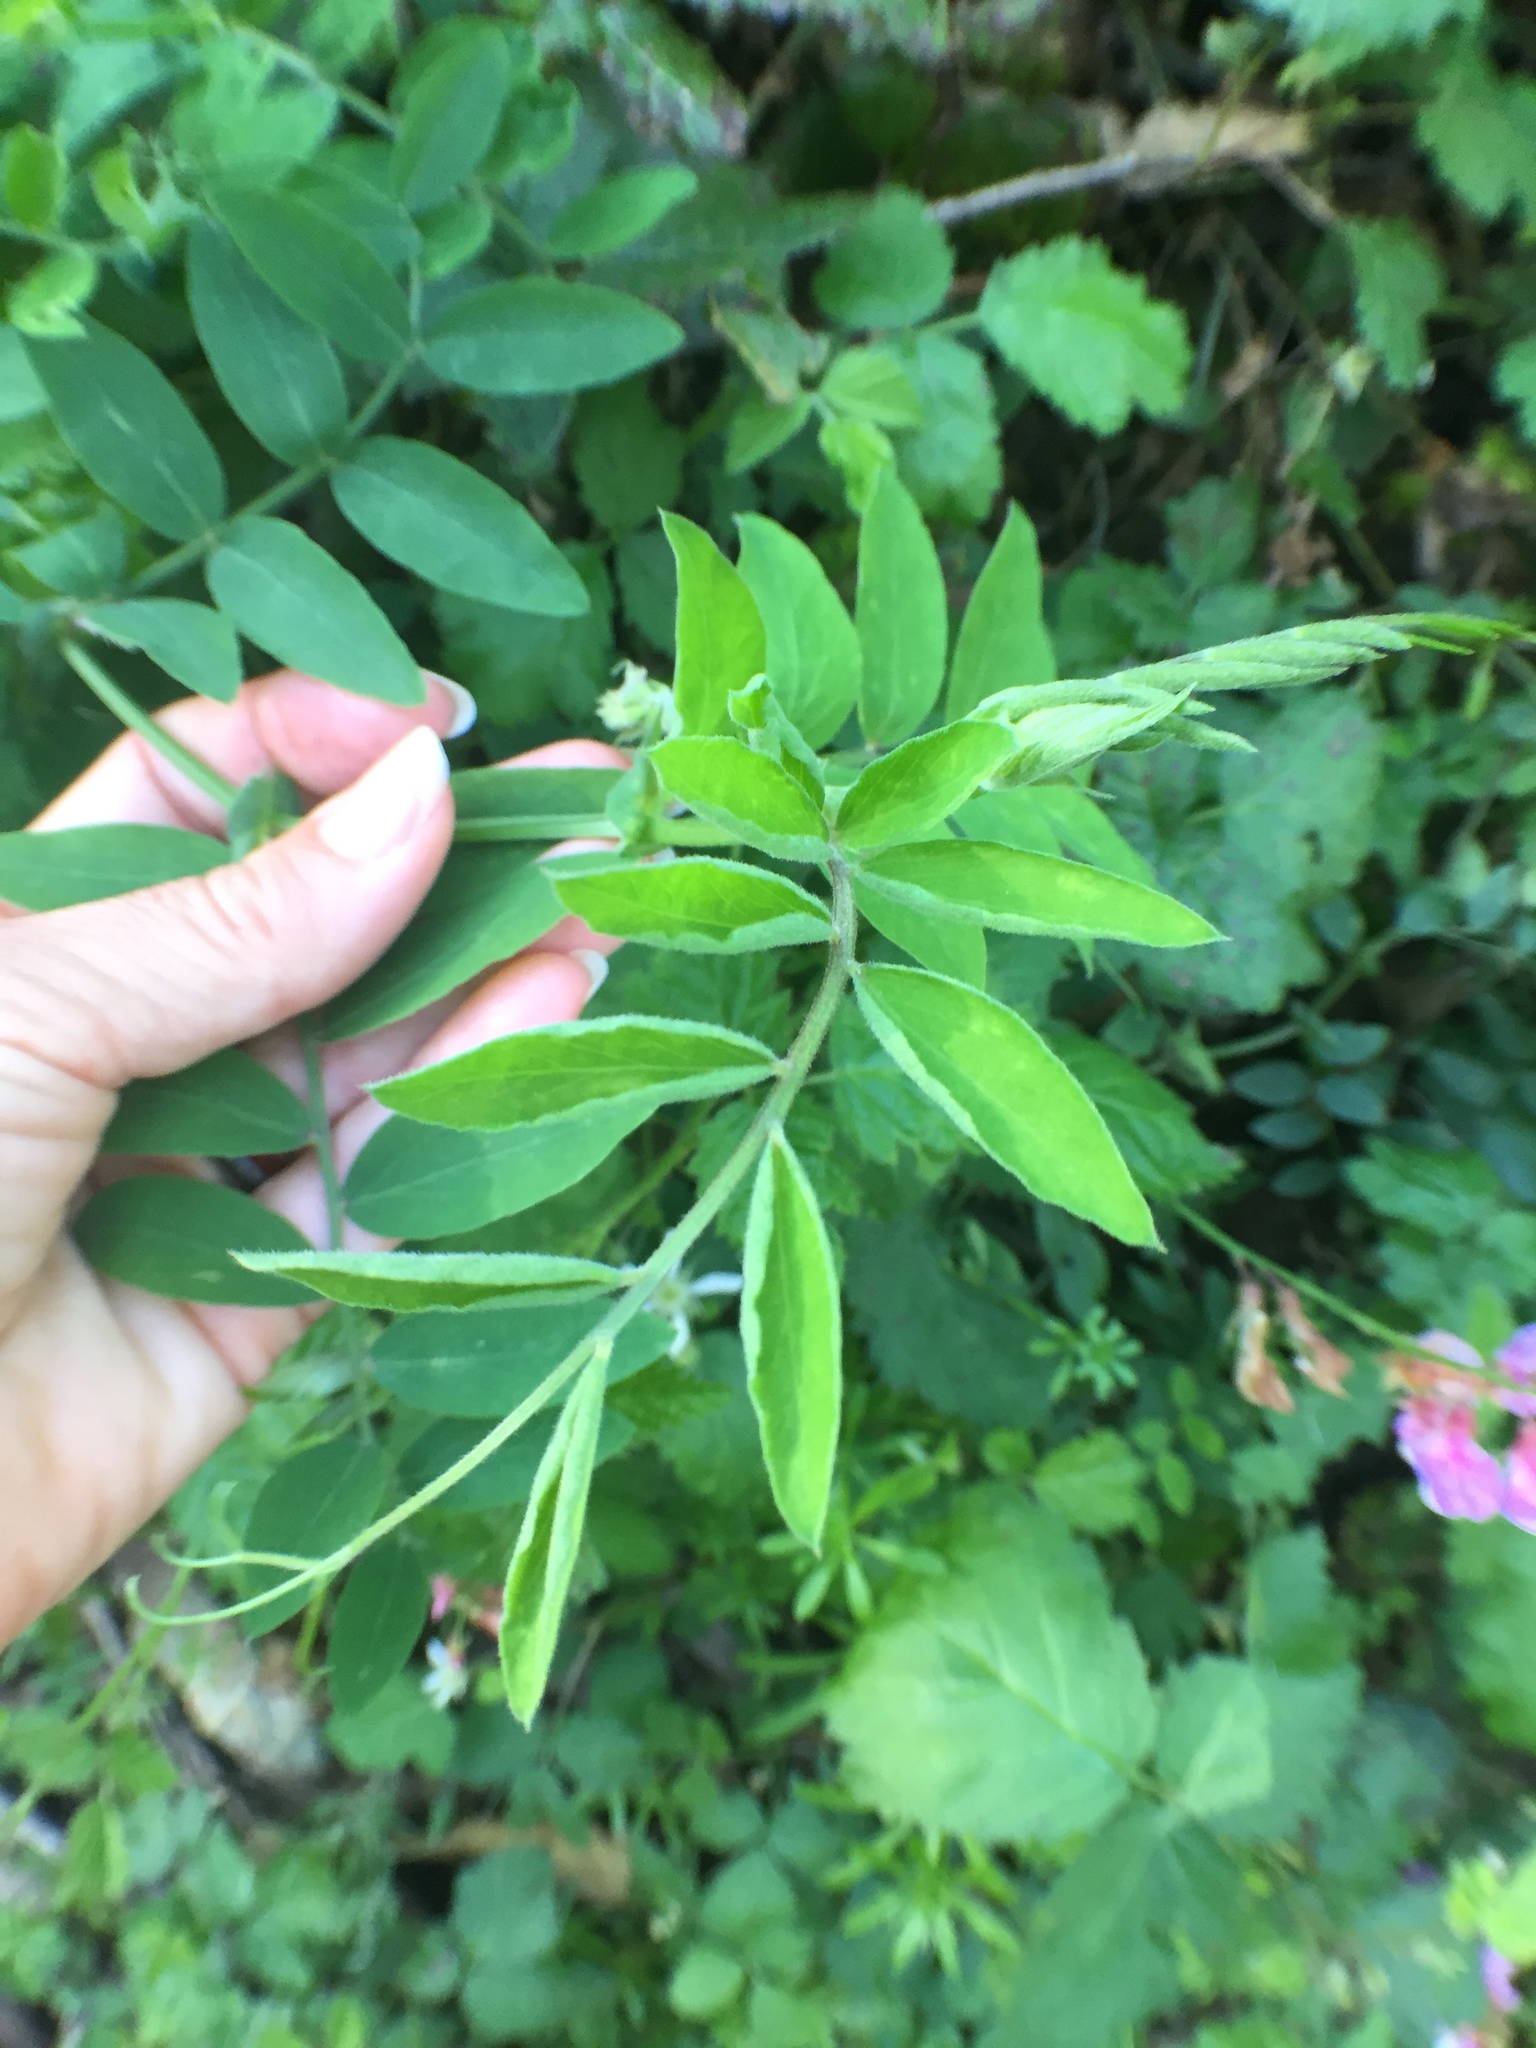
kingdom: Plantae
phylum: Tracheophyta
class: Magnoliopsida
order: Fabales
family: Fabaceae
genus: Vicia
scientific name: Vicia americana
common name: American vetch
